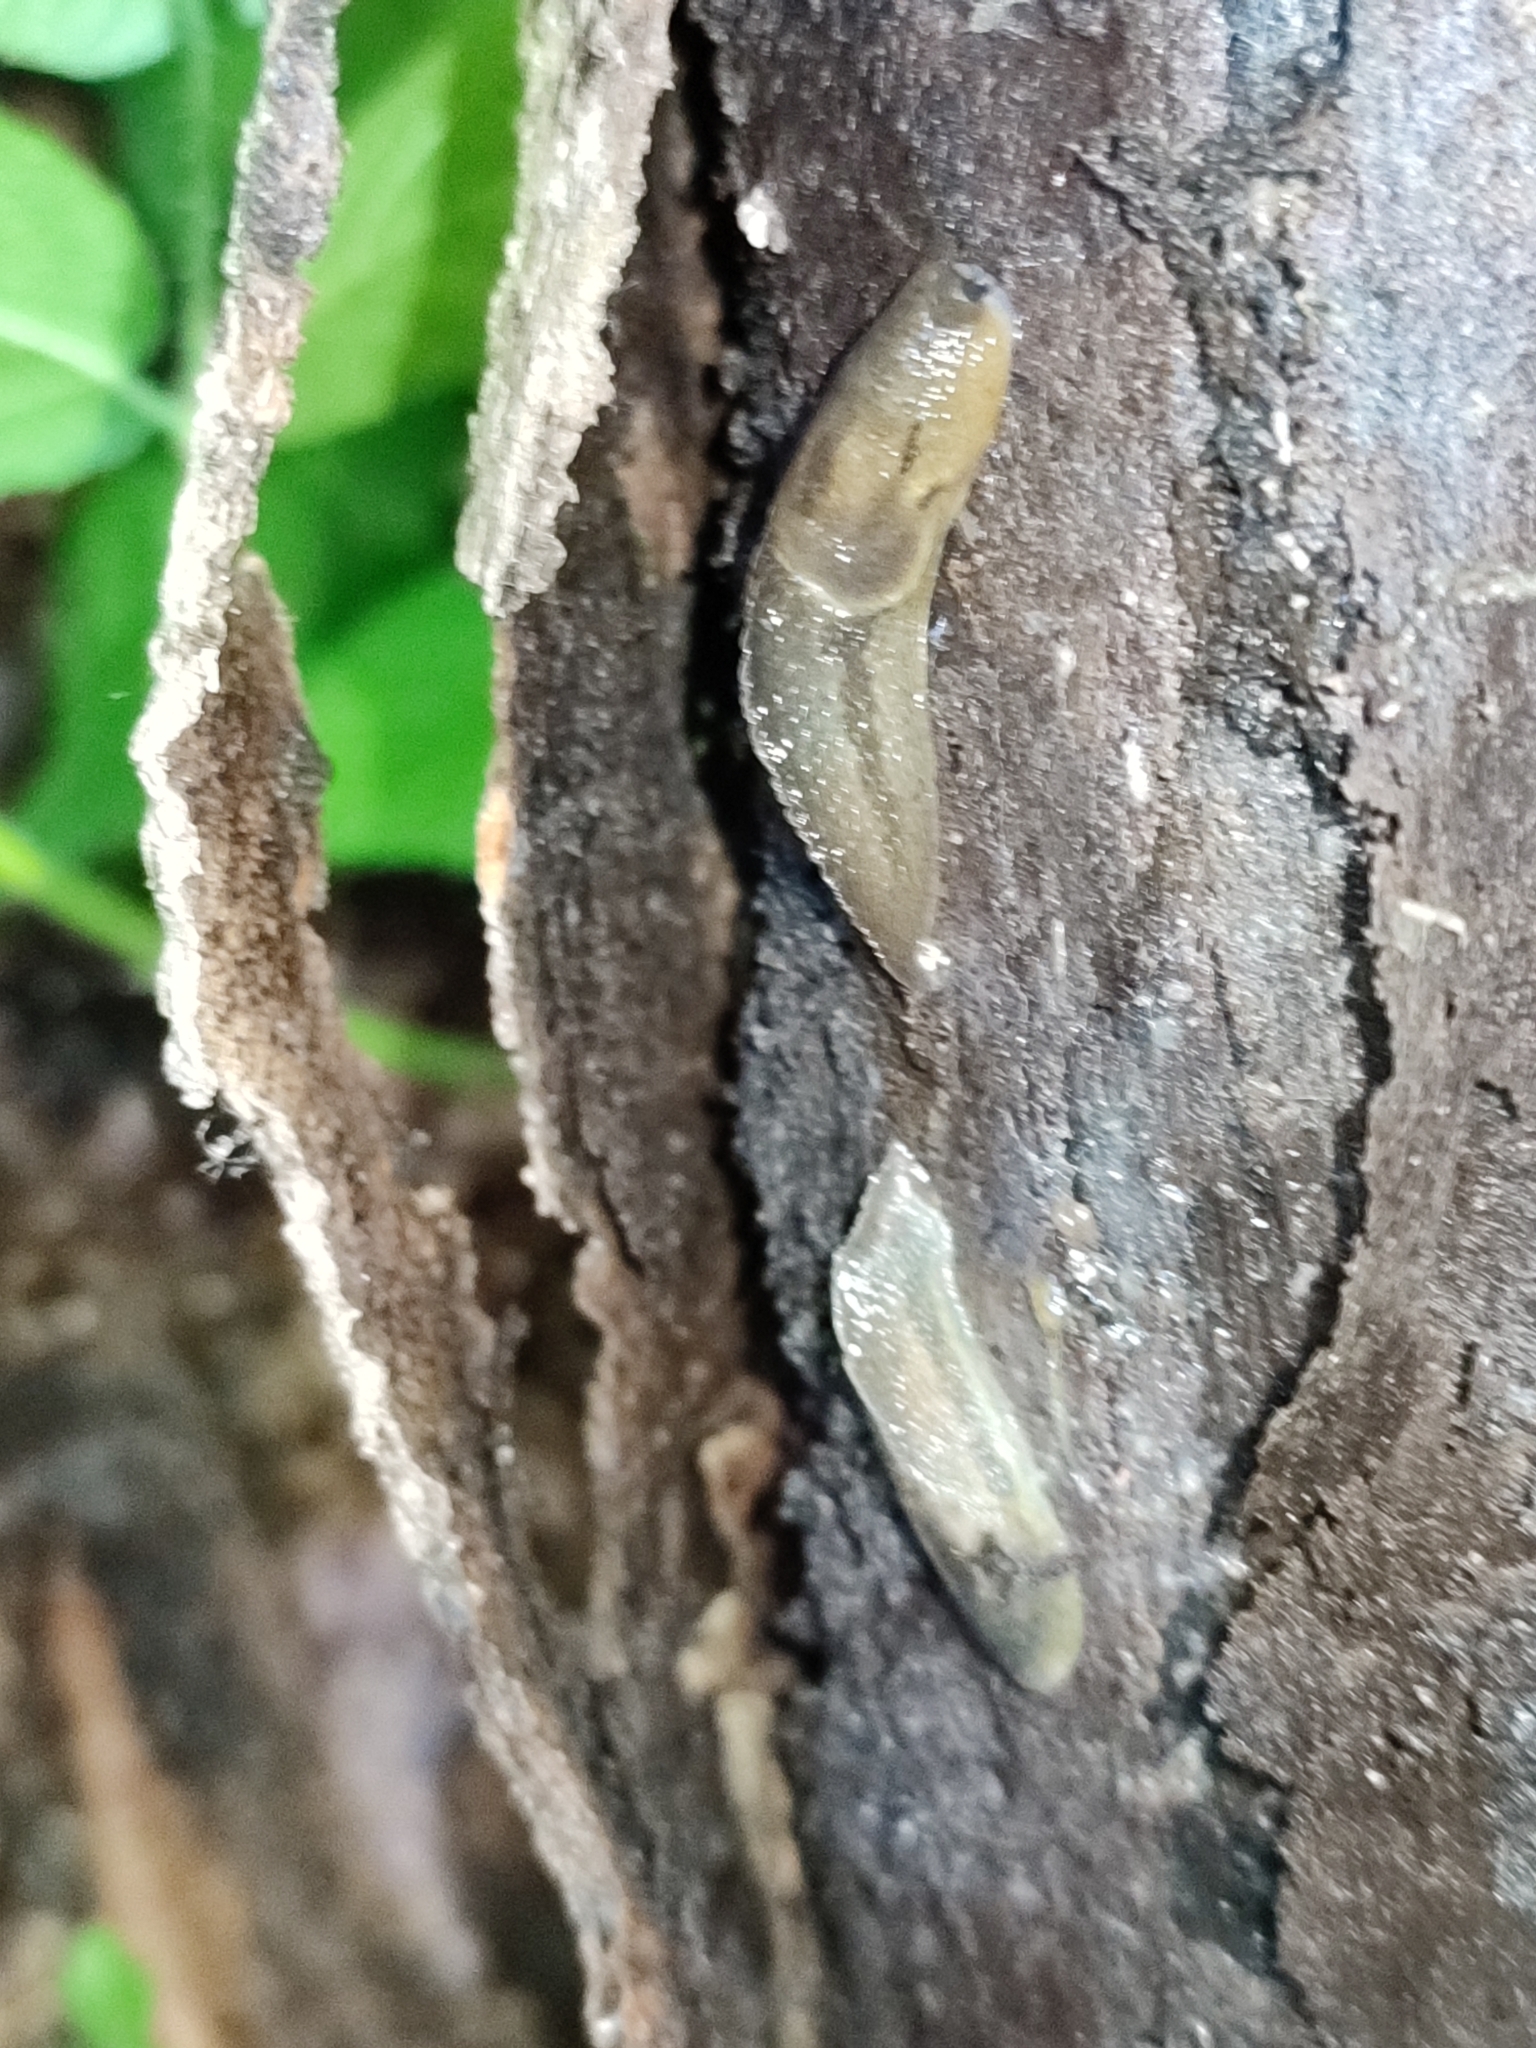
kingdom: Animalia
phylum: Mollusca
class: Gastropoda
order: Stylommatophora
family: Limacidae
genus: Bielzia
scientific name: Bielzia coerulans
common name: Carpathian blue slug
